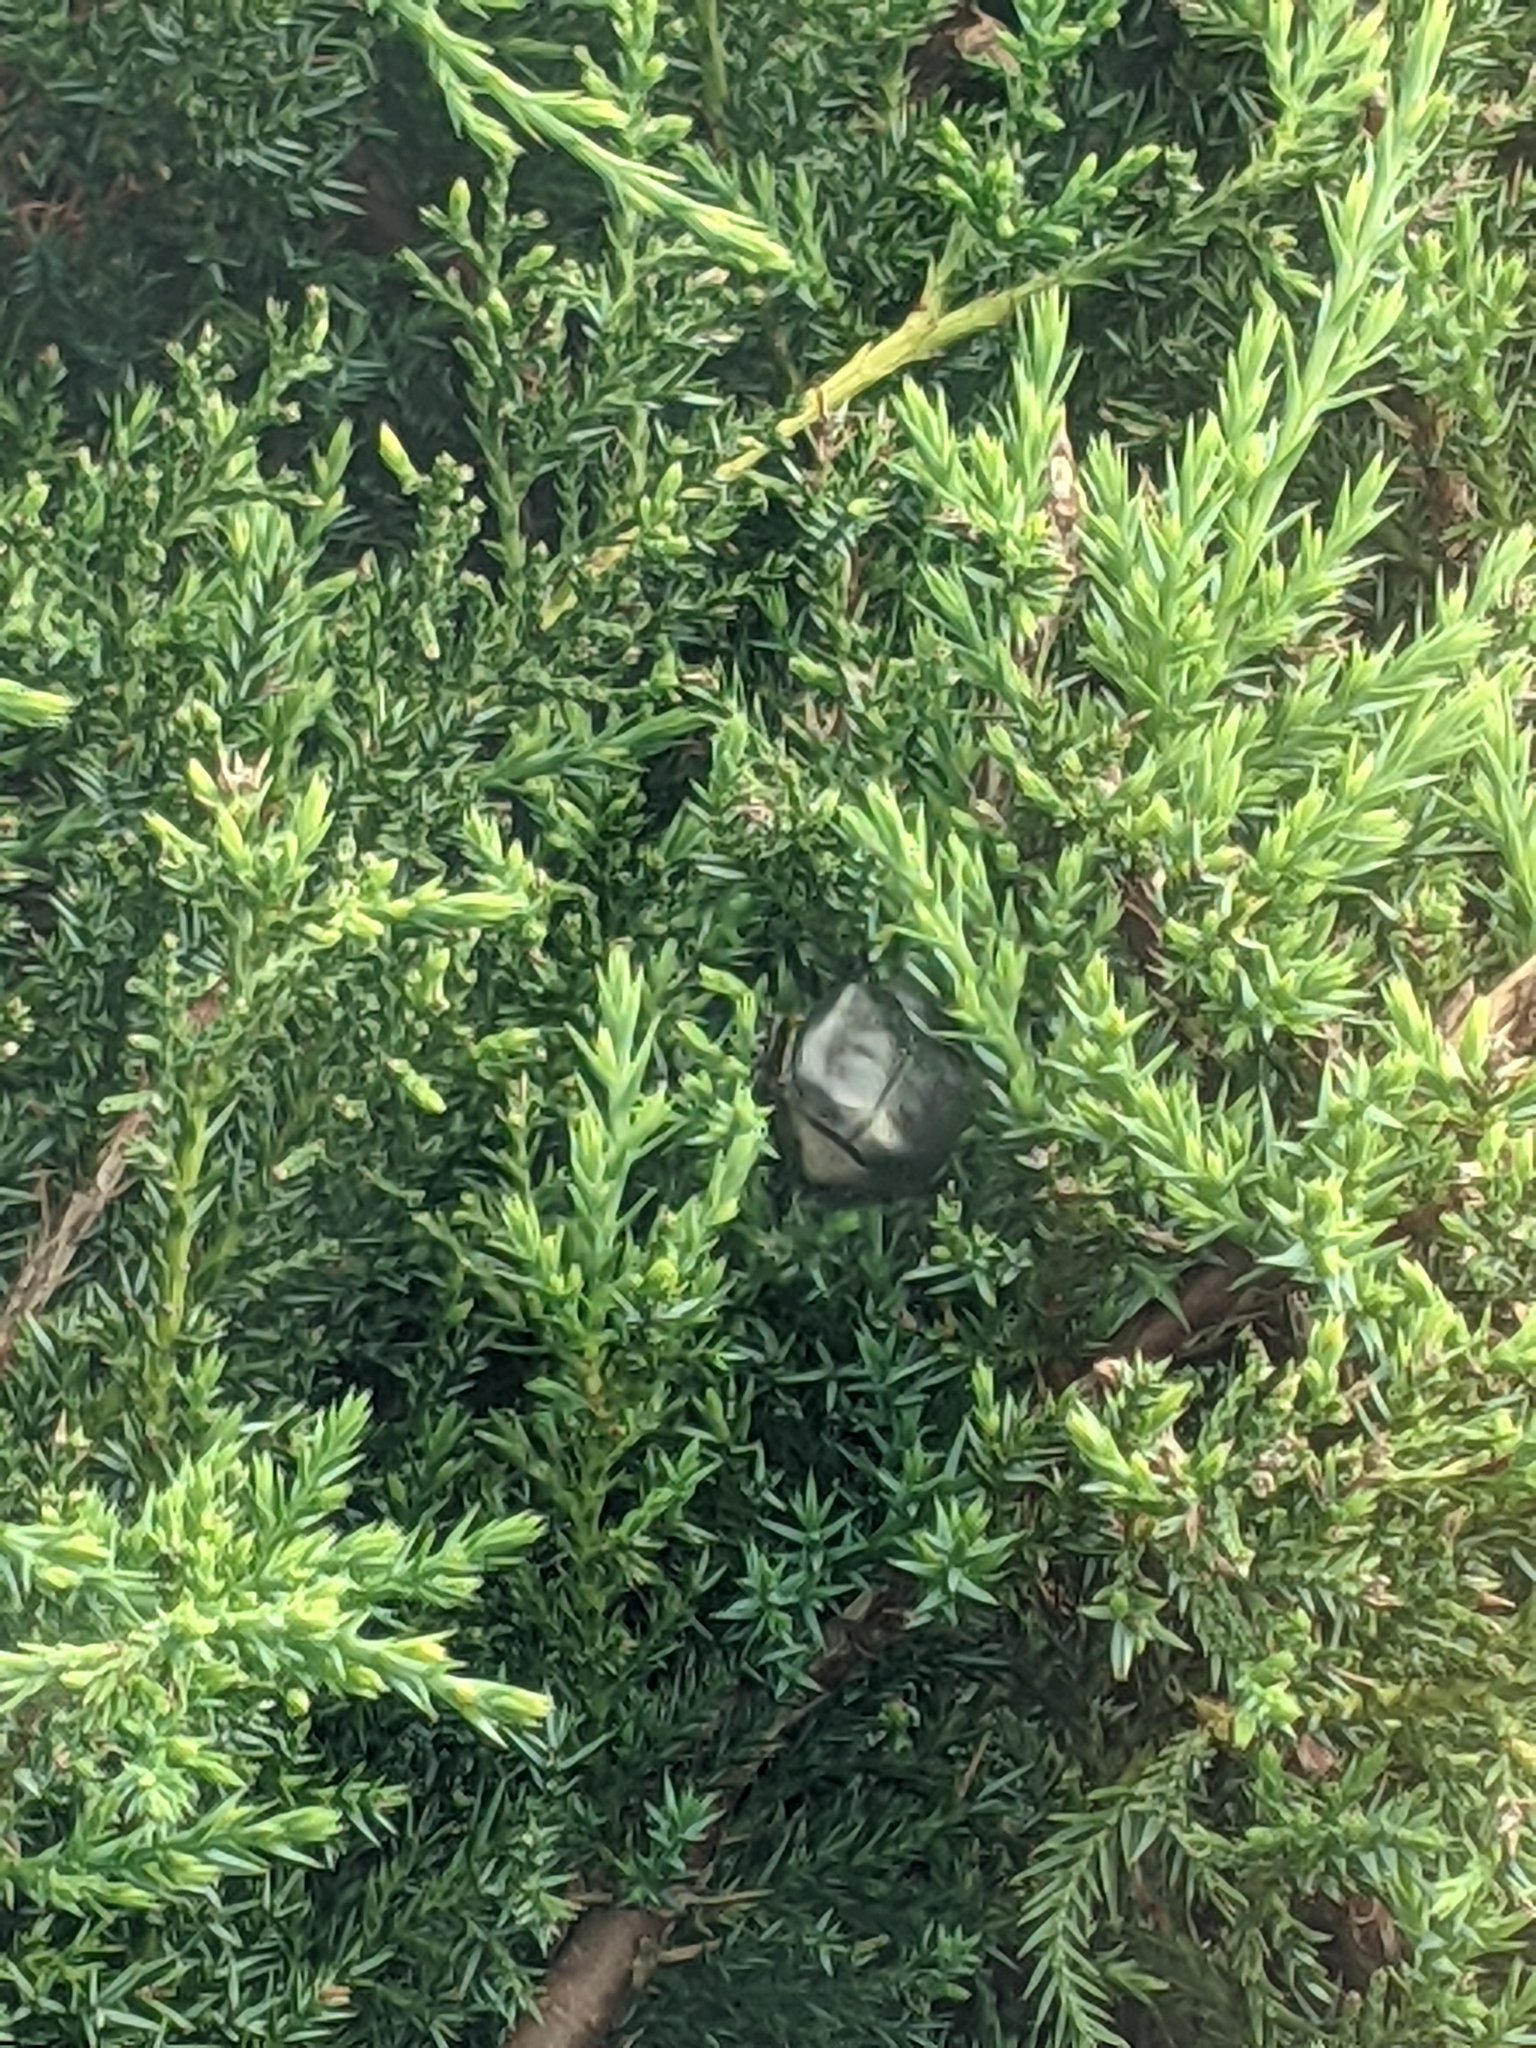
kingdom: Animalia
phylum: Arthropoda
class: Insecta
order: Coleoptera
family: Scarabaeidae
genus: Osmoderma
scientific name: Osmoderma eremicola
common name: Hermit flower beetle
